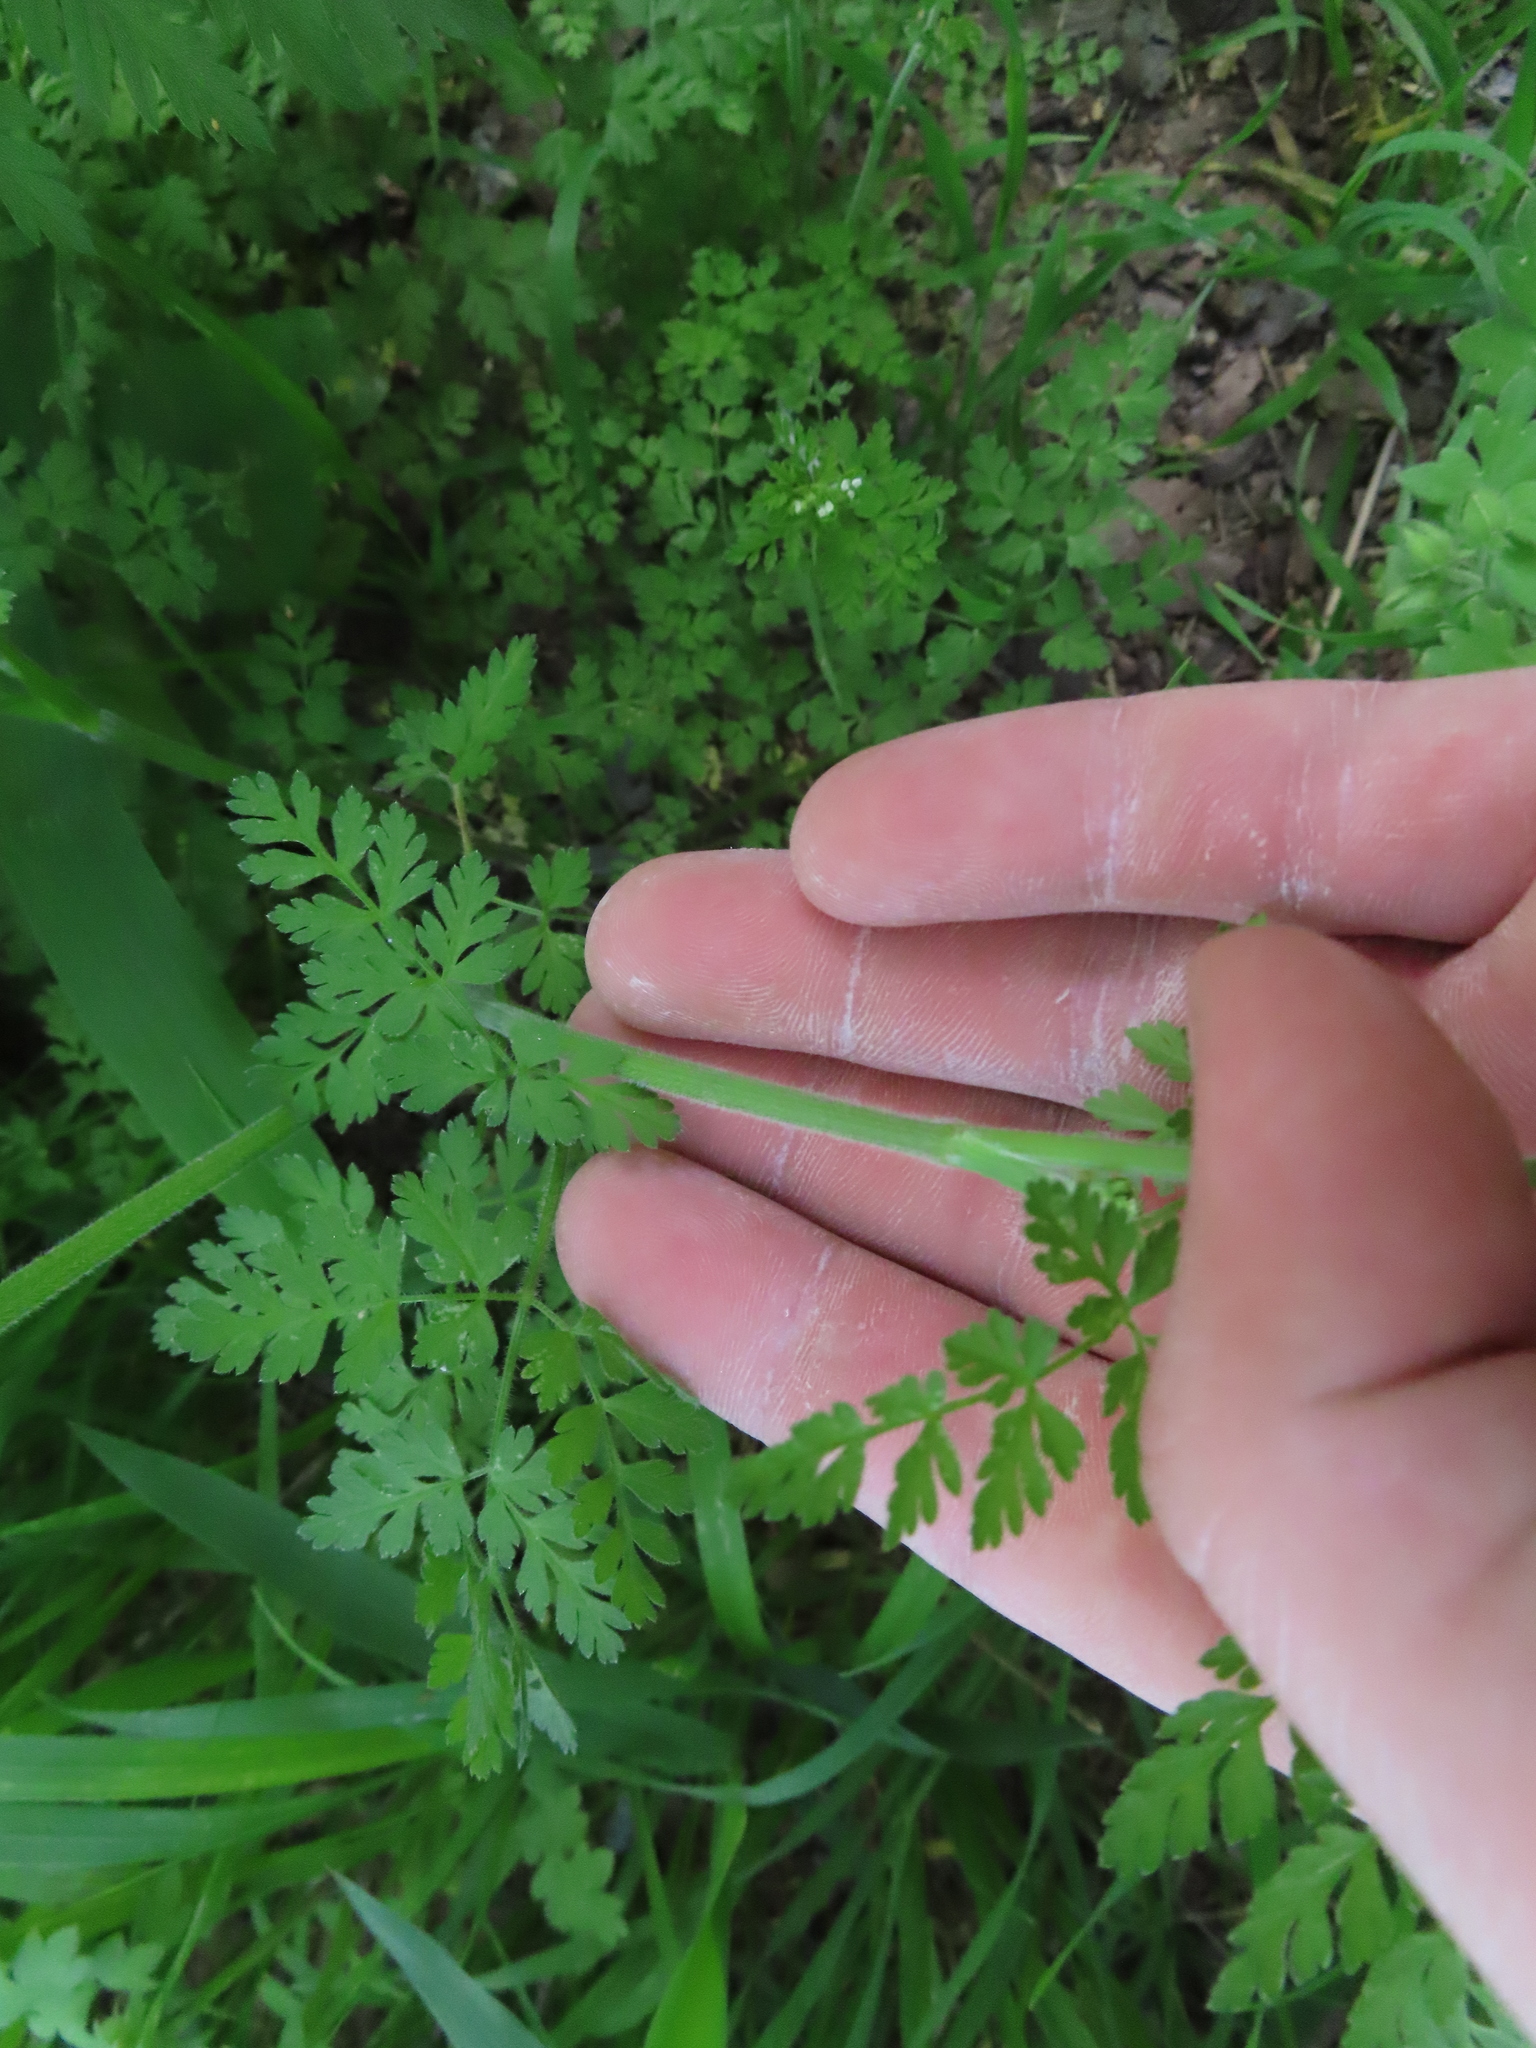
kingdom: Plantae
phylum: Tracheophyta
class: Magnoliopsida
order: Apiales
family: Apiaceae
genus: Chaerophyllum
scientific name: Chaerophyllum tainturieri
